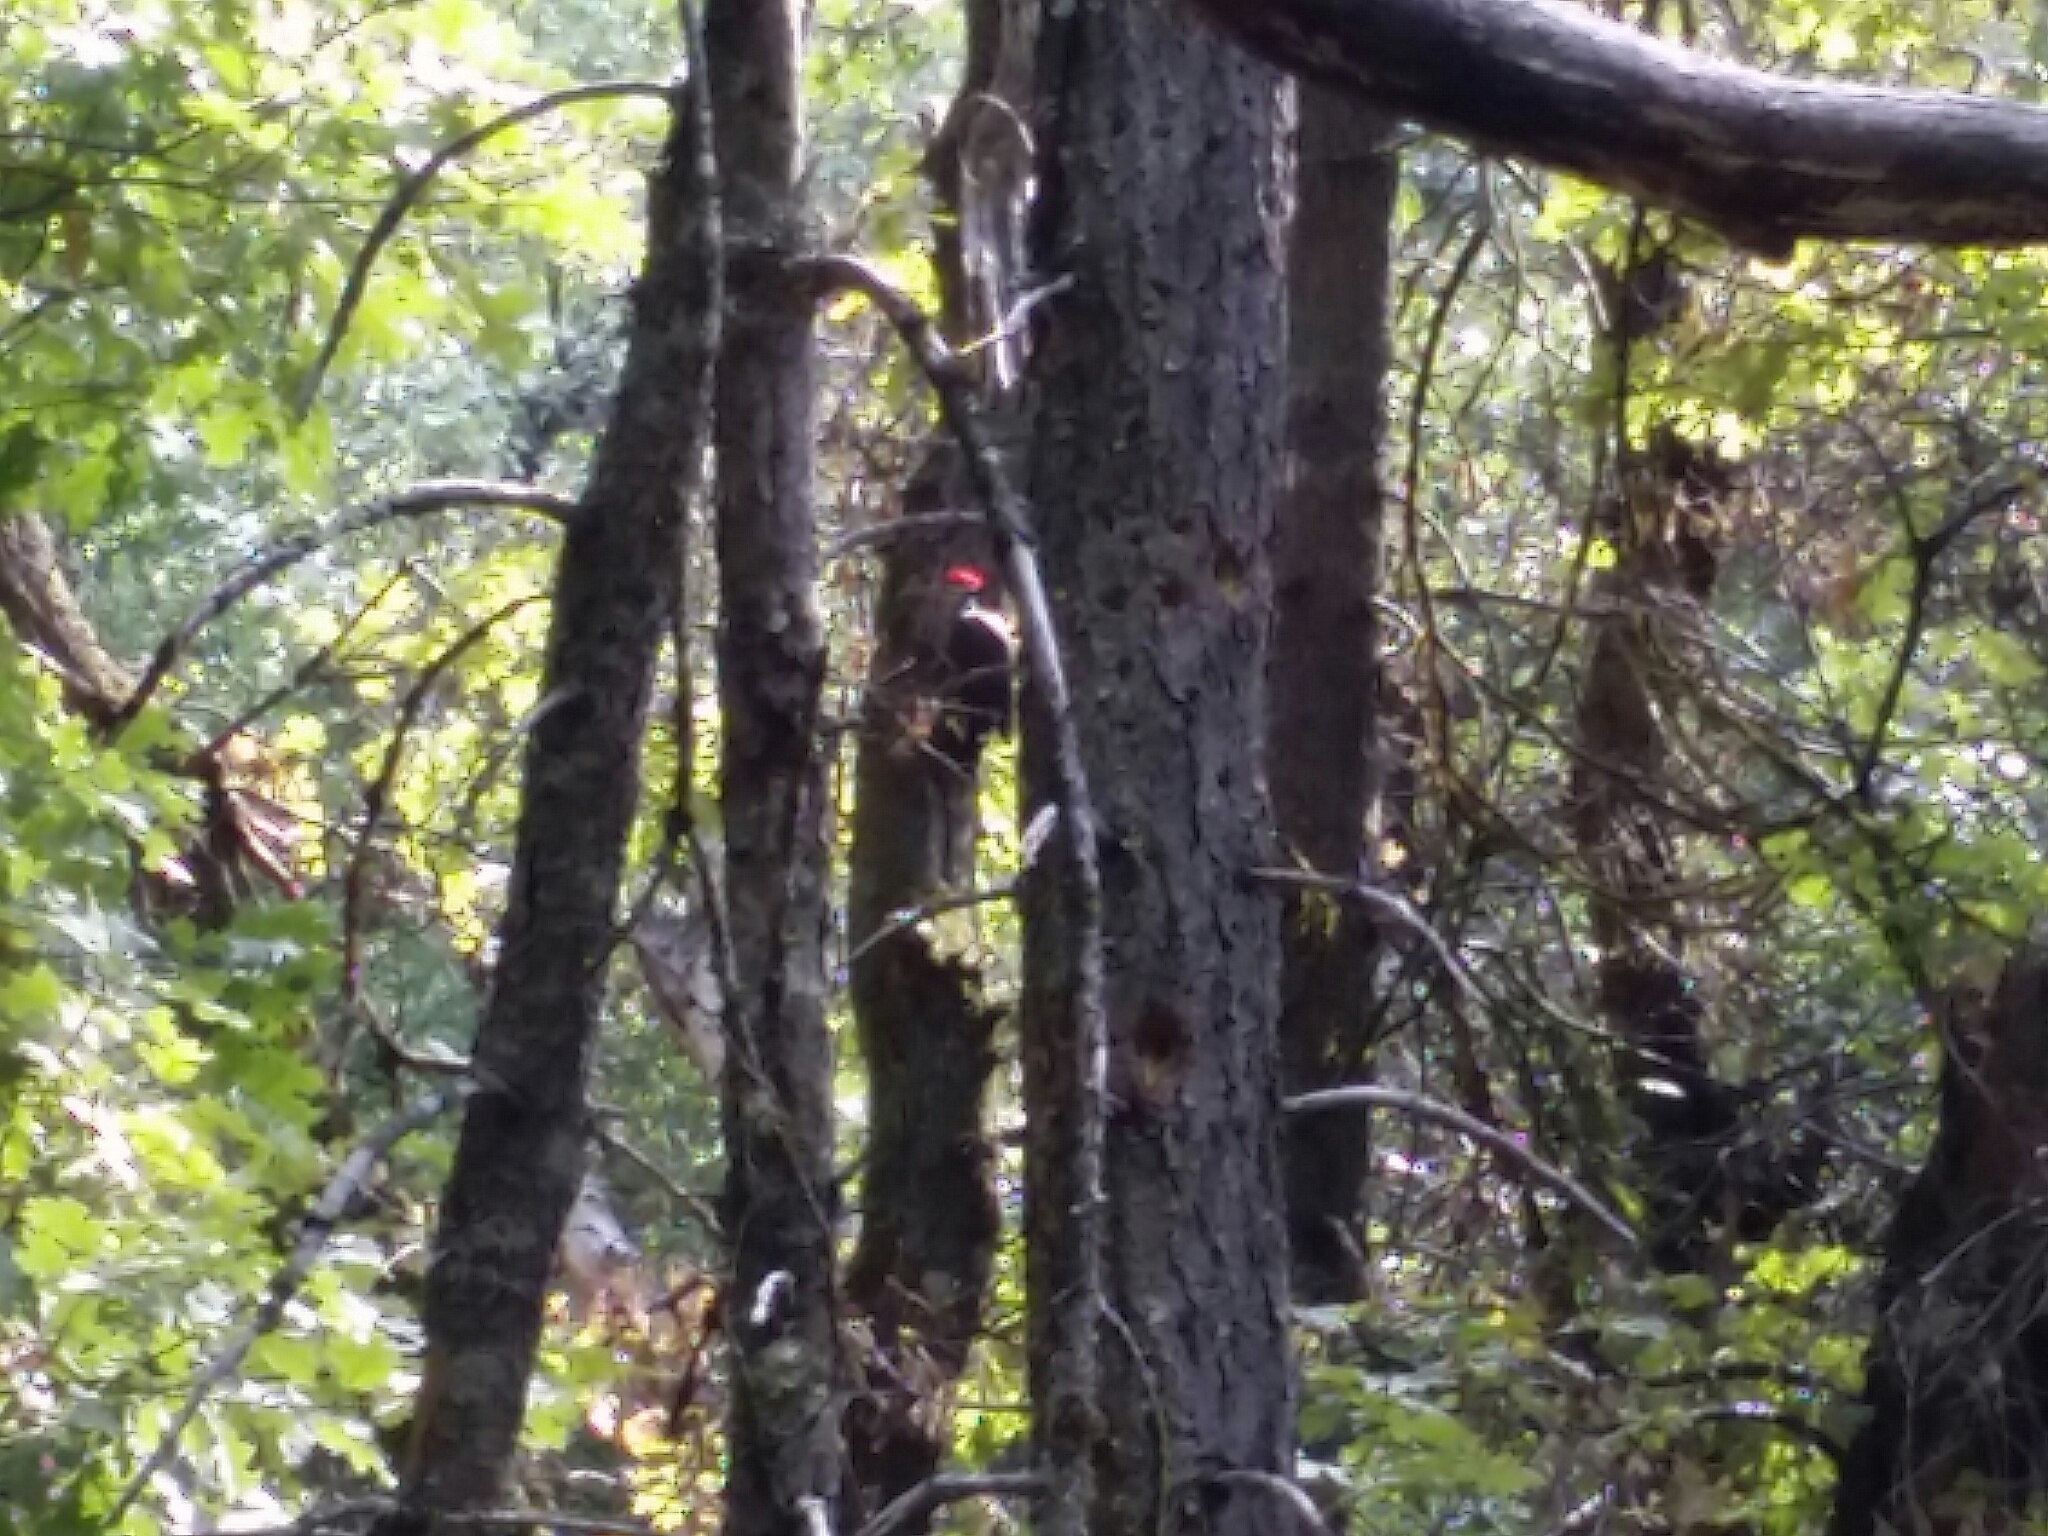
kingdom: Animalia
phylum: Chordata
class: Aves
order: Piciformes
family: Picidae
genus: Dryocopus
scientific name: Dryocopus pileatus
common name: Pileated woodpecker
